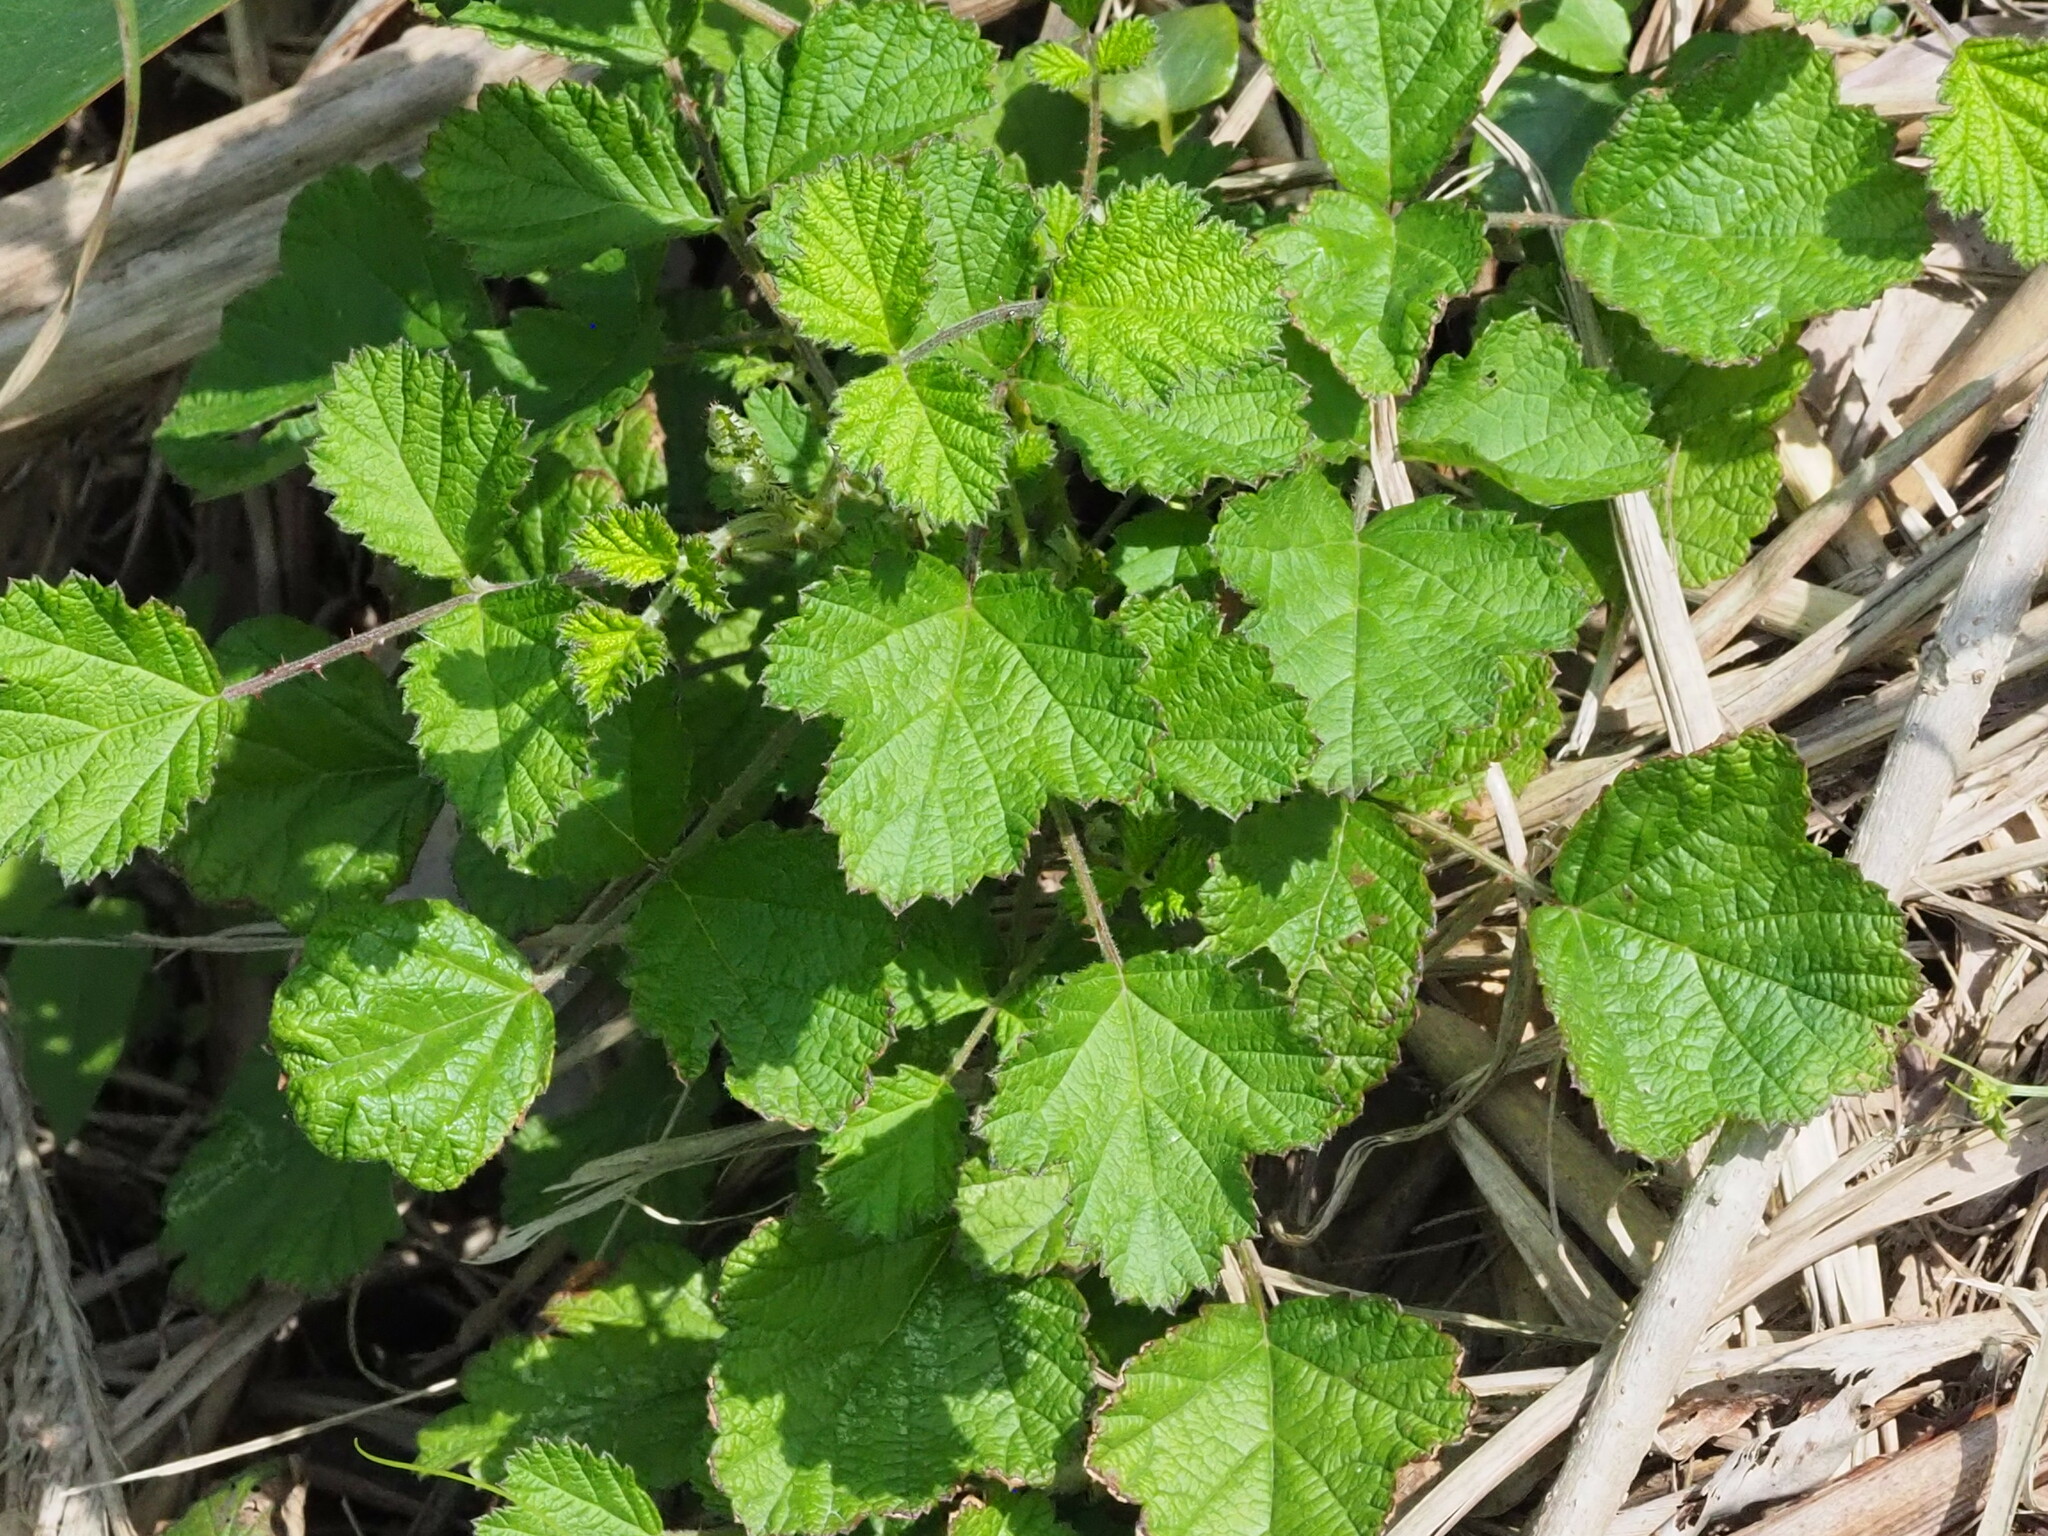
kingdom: Plantae
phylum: Tracheophyta
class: Magnoliopsida
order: Rosales
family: Rosaceae
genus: Rubus
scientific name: Rubus parvifolius
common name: Threeleaf blackberry
